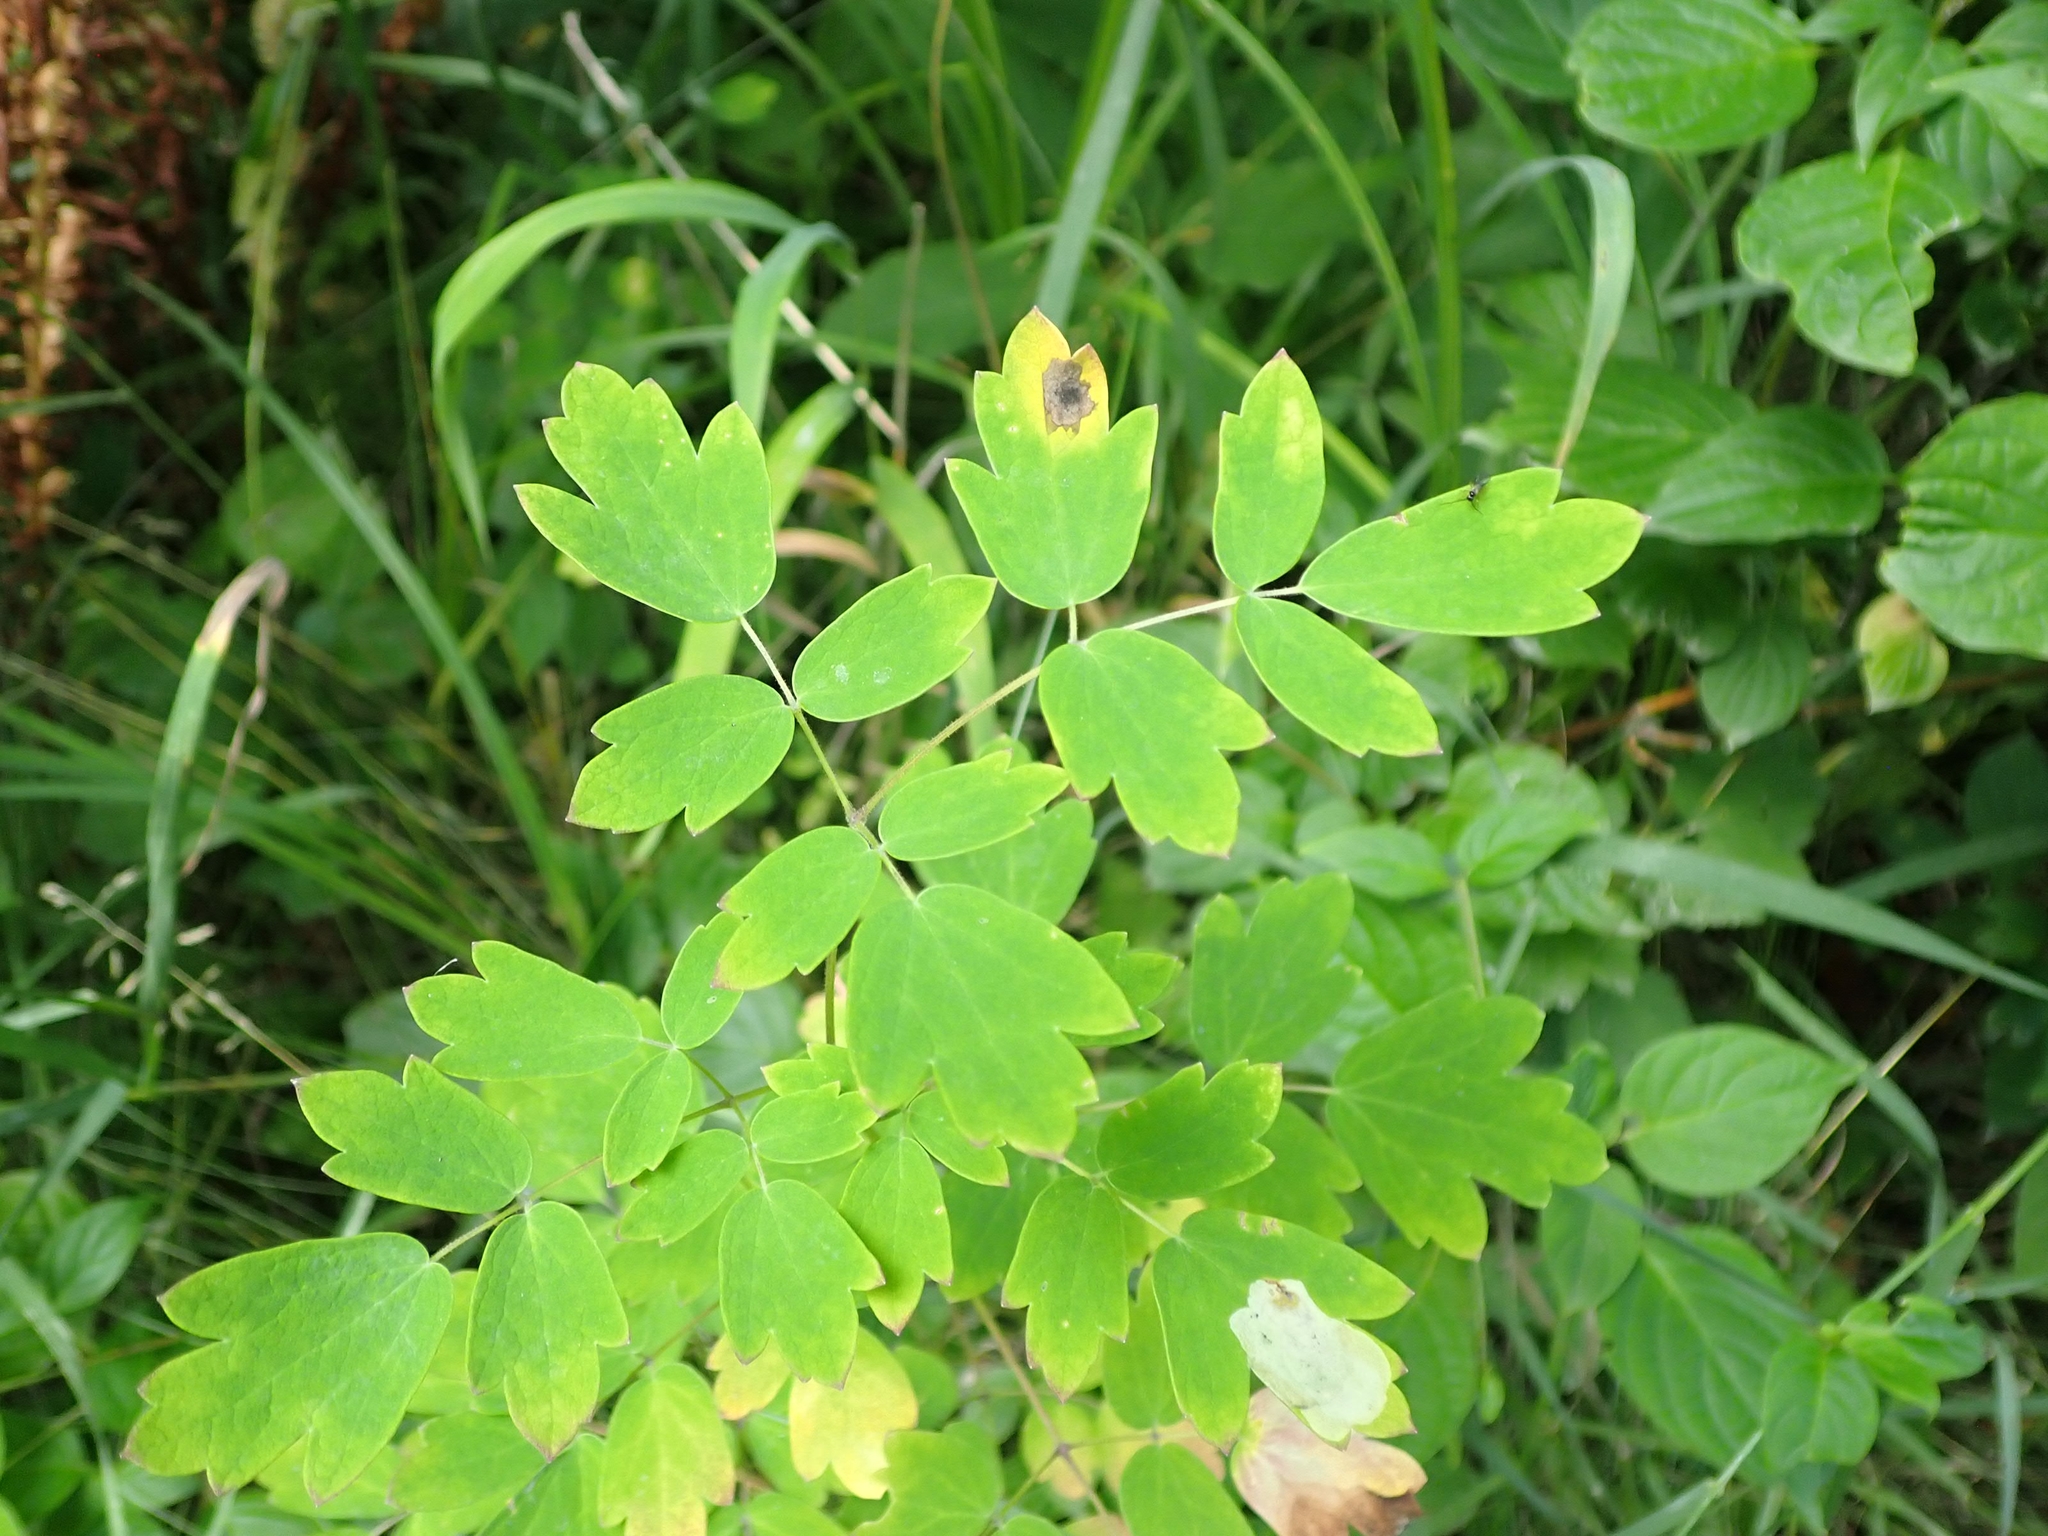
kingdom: Plantae
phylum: Tracheophyta
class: Magnoliopsida
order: Ranunculales
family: Ranunculaceae
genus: Thalictrum
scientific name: Thalictrum dasycarpum
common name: Purple meadow-rue
